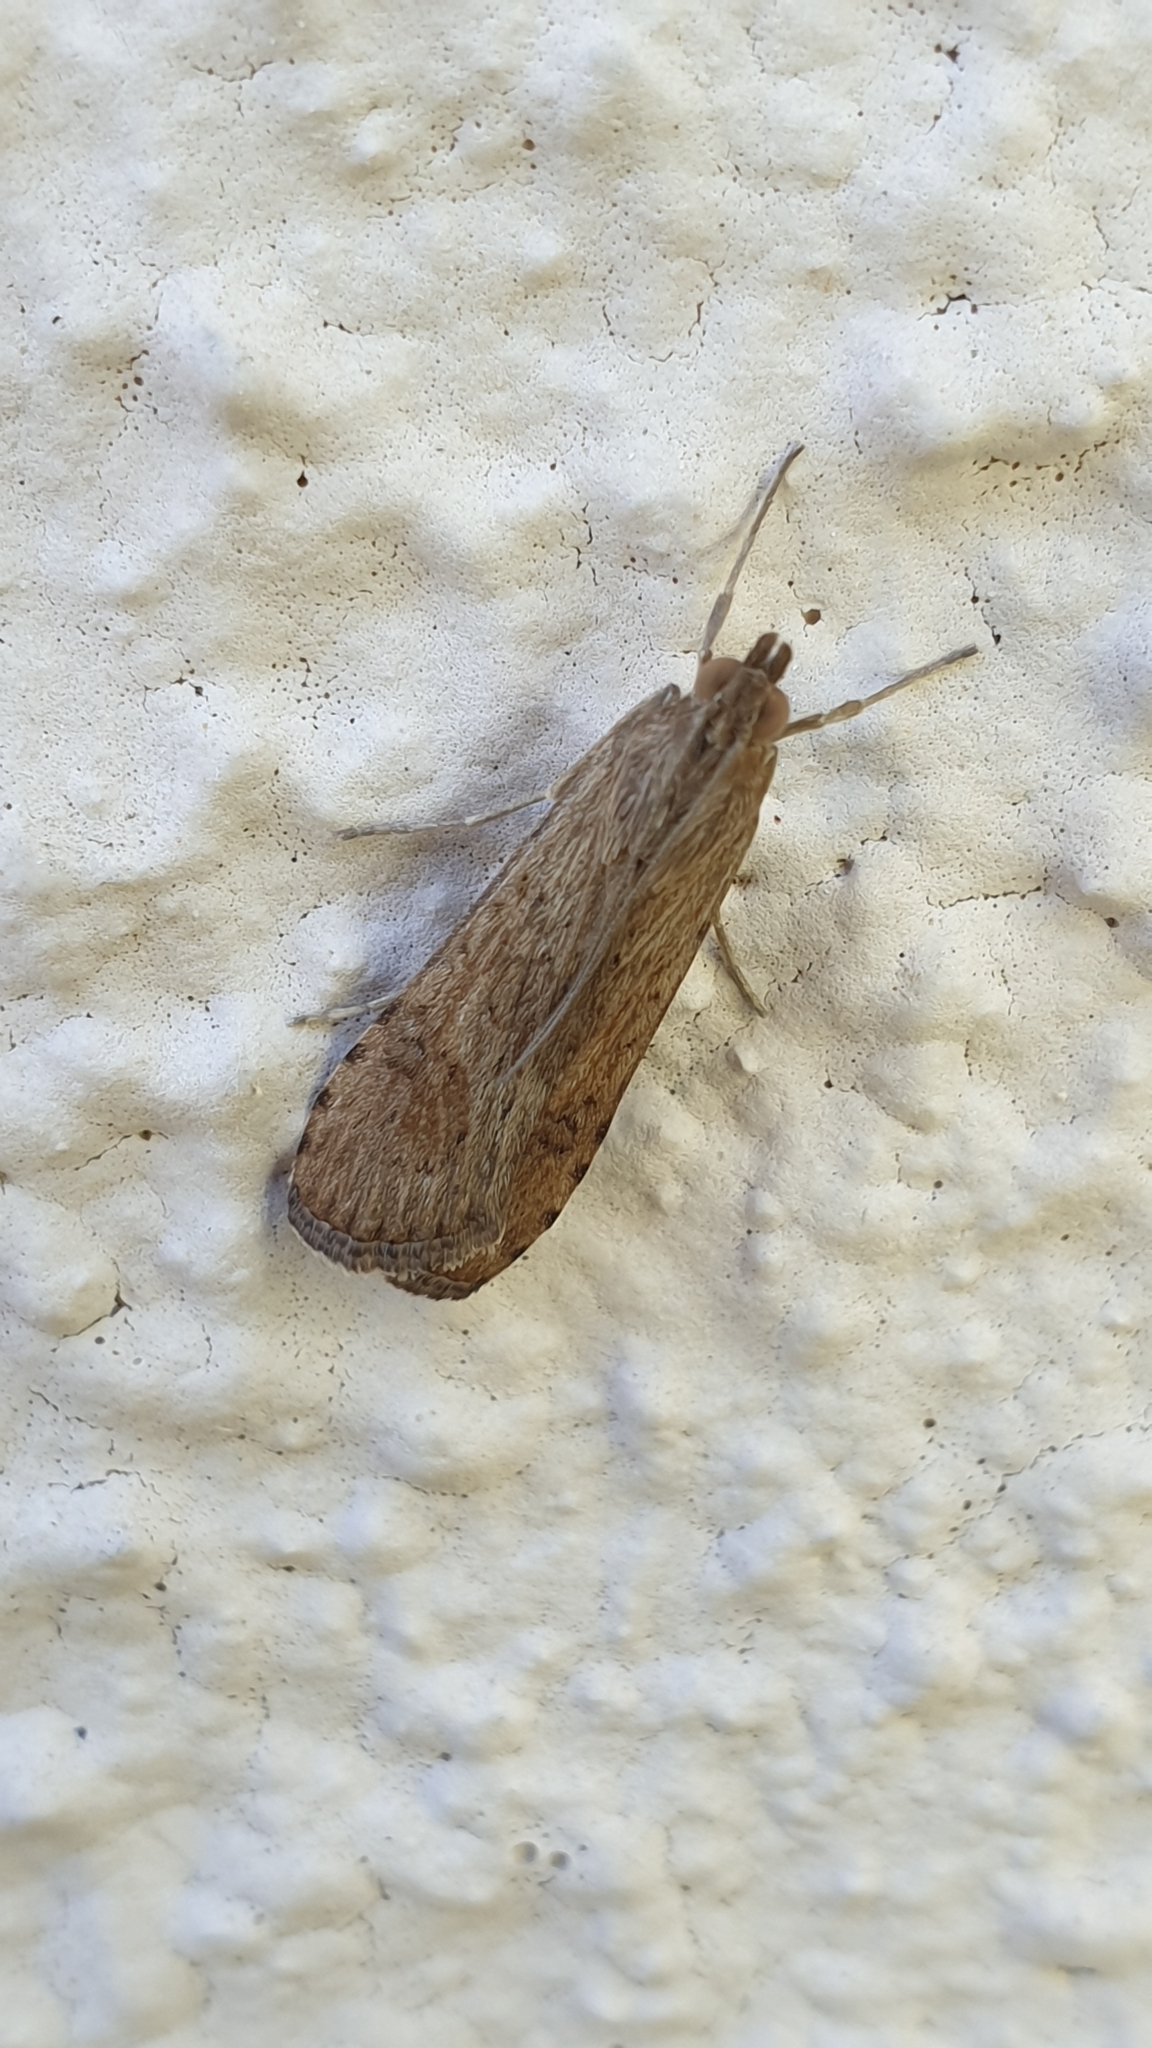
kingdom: Animalia
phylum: Arthropoda
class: Insecta
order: Lepidoptera
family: Crambidae
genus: Nomophila
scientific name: Nomophila noctuella
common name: Rush veneer
